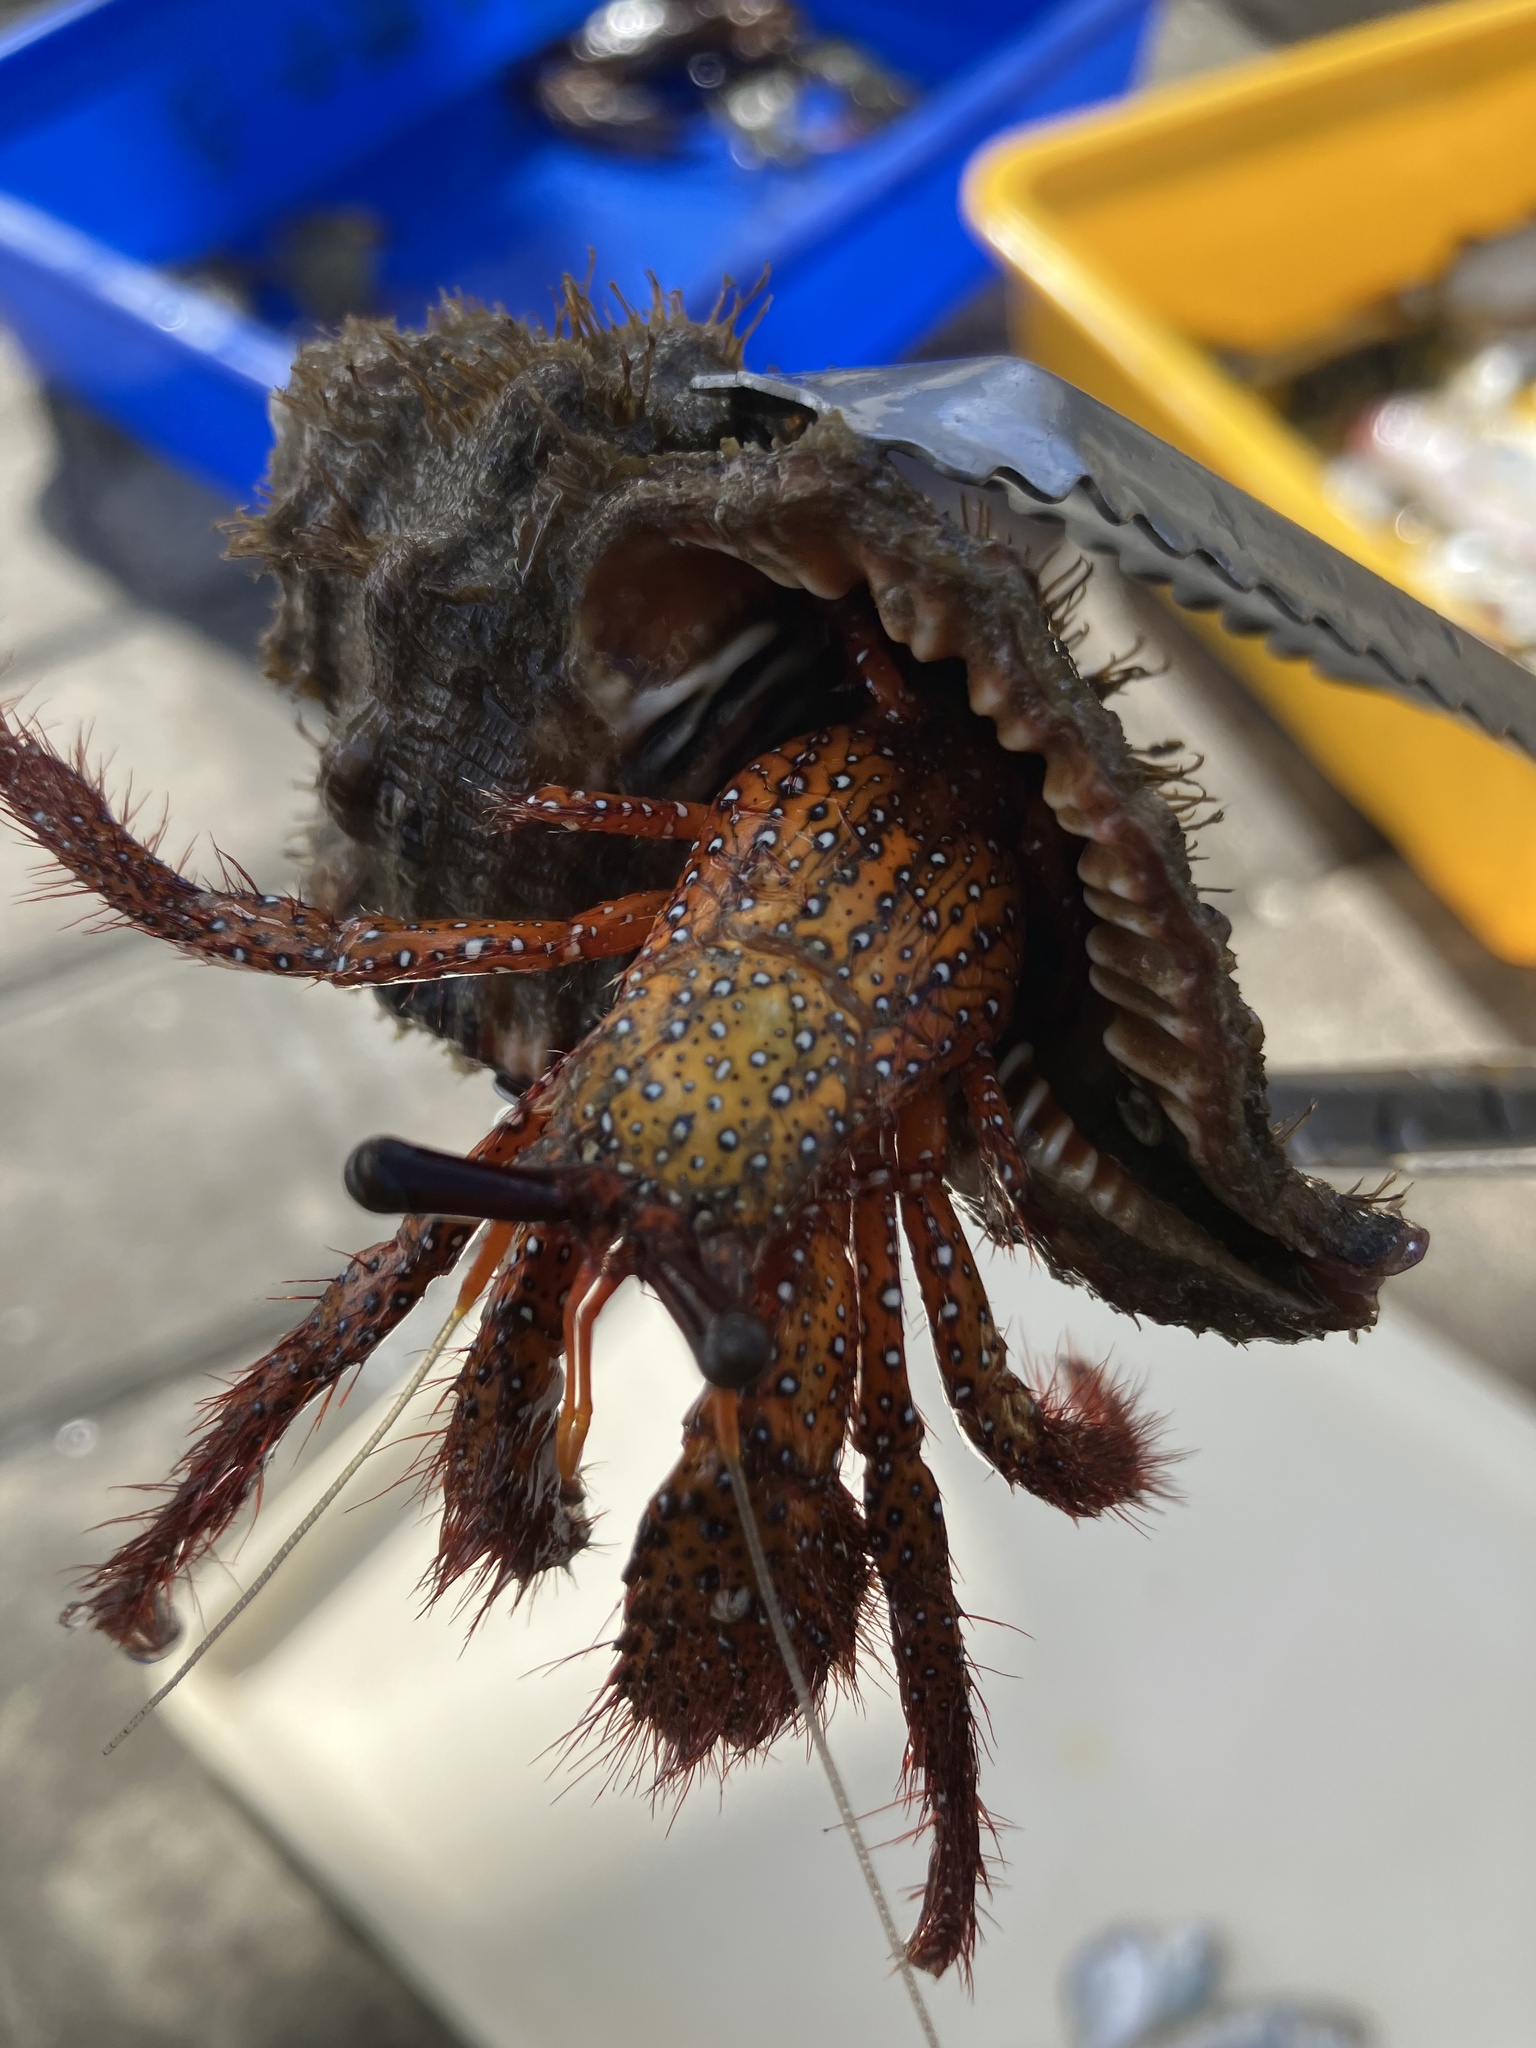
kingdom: Animalia
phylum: Arthropoda
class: Malacostraca
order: Decapoda
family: Diogenidae
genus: Dardanus
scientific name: Dardanus megistos
